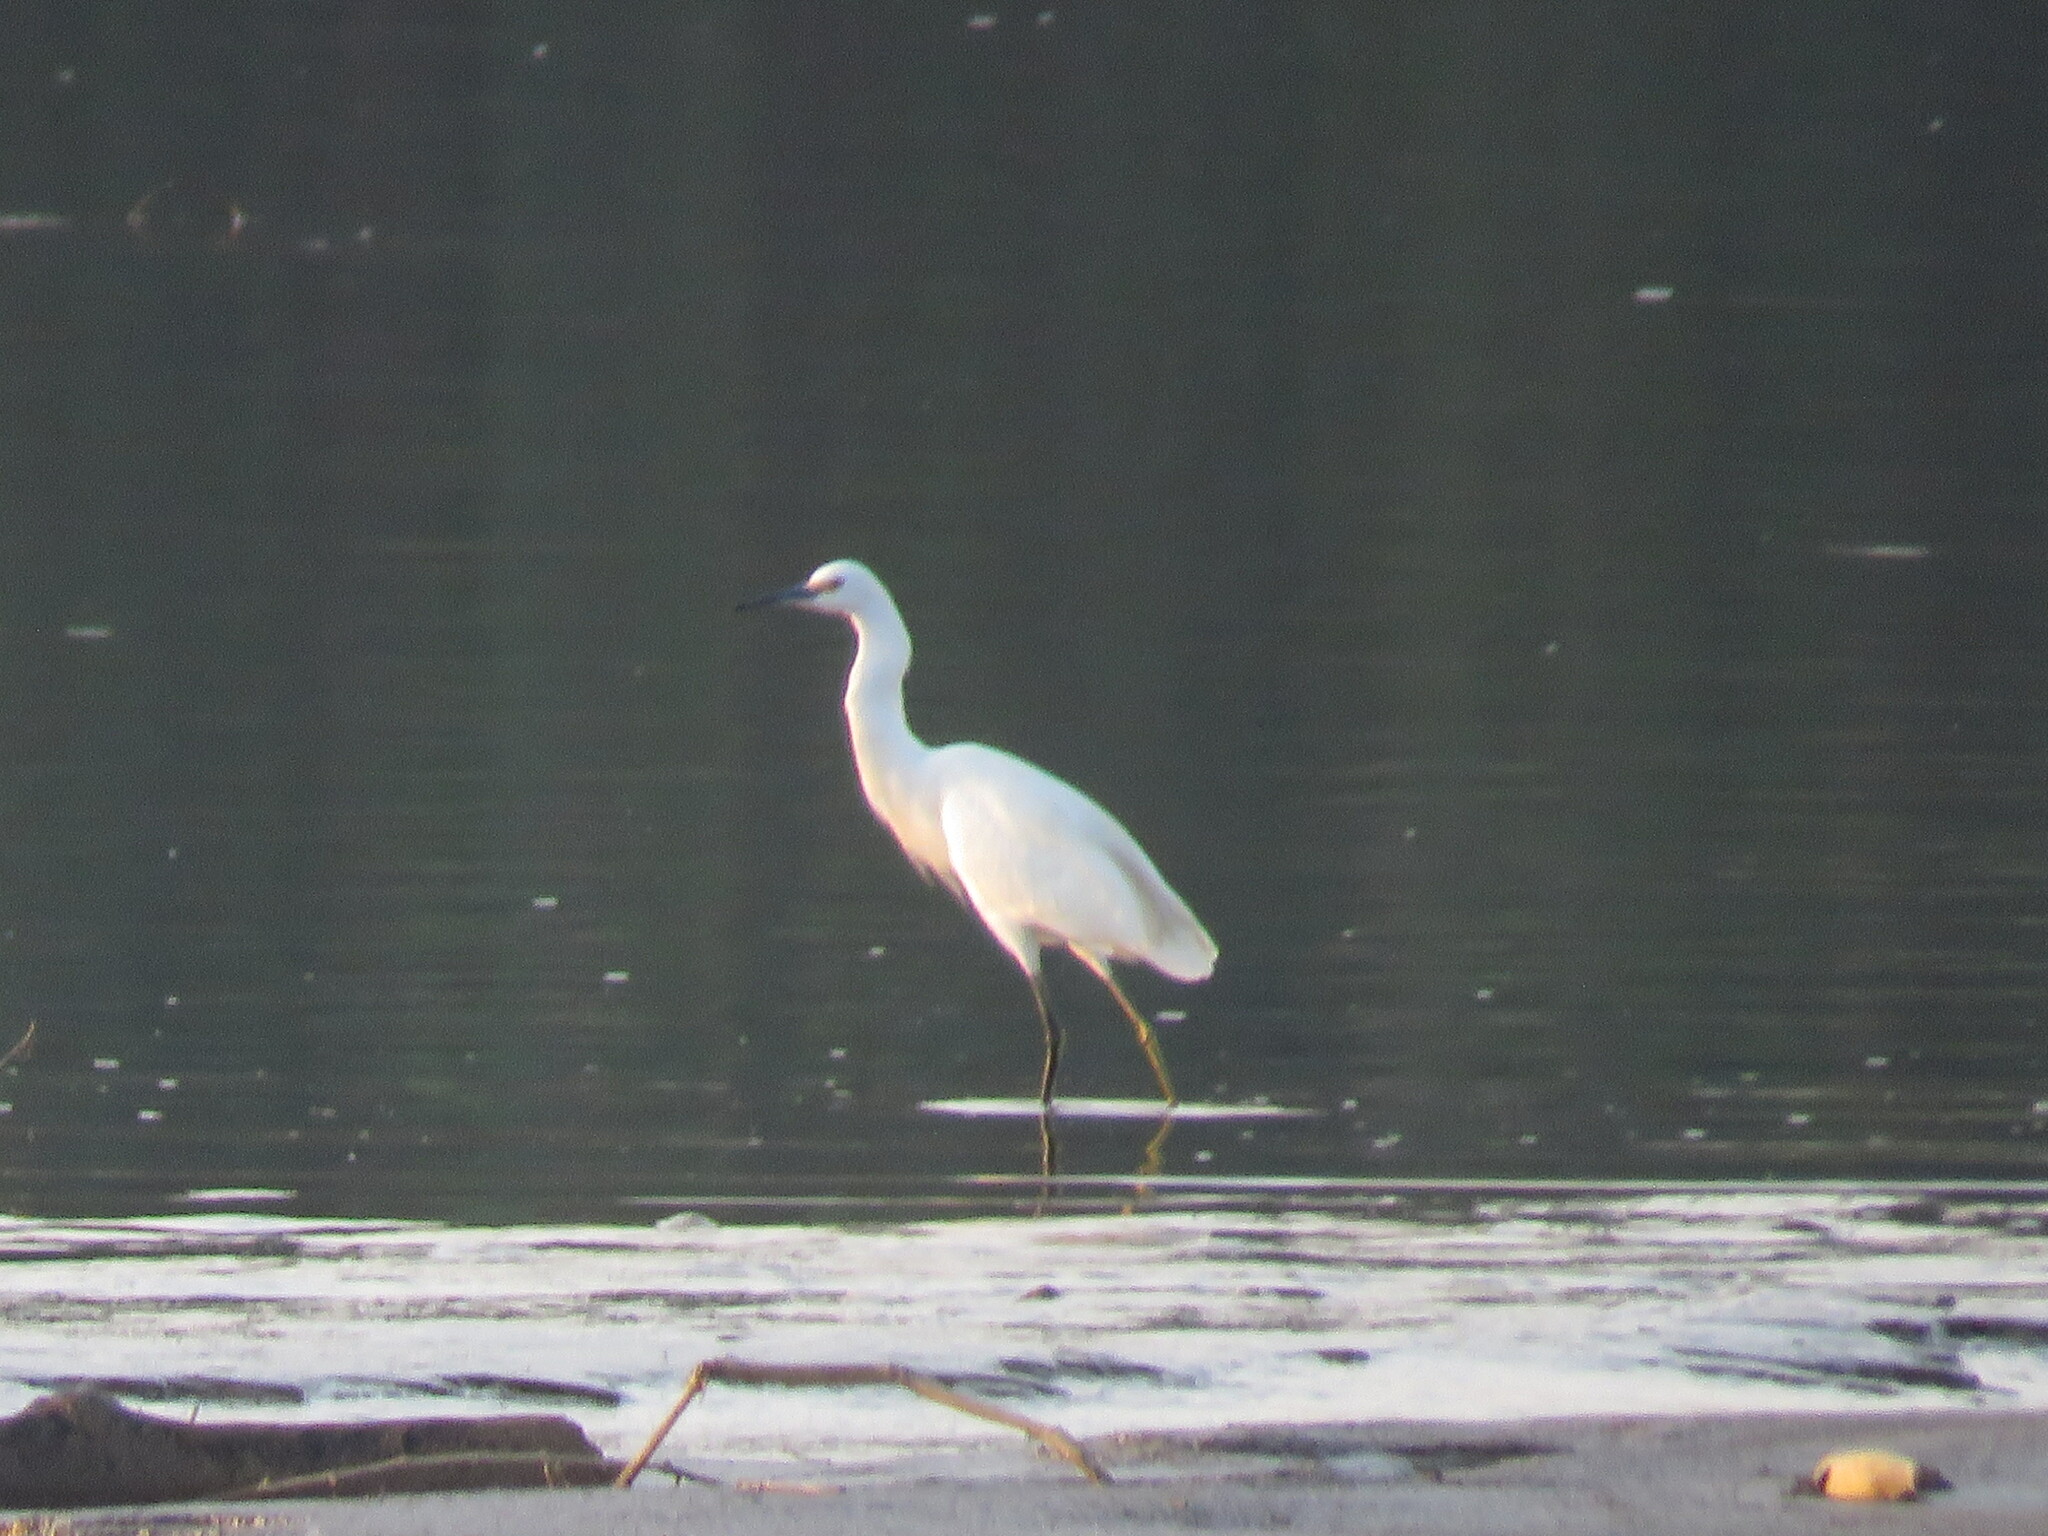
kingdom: Animalia
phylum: Chordata
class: Aves
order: Pelecaniformes
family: Ardeidae
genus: Egretta
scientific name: Egretta thula
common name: Snowy egret
